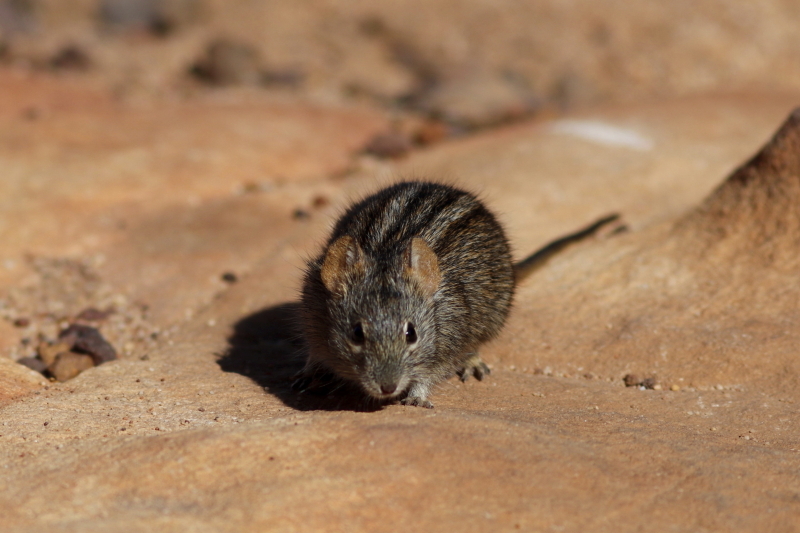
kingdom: Animalia
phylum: Chordata
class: Mammalia
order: Rodentia
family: Muridae
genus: Rhabdomys
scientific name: Rhabdomys pumilio
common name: Xeric four-striped grass rat
